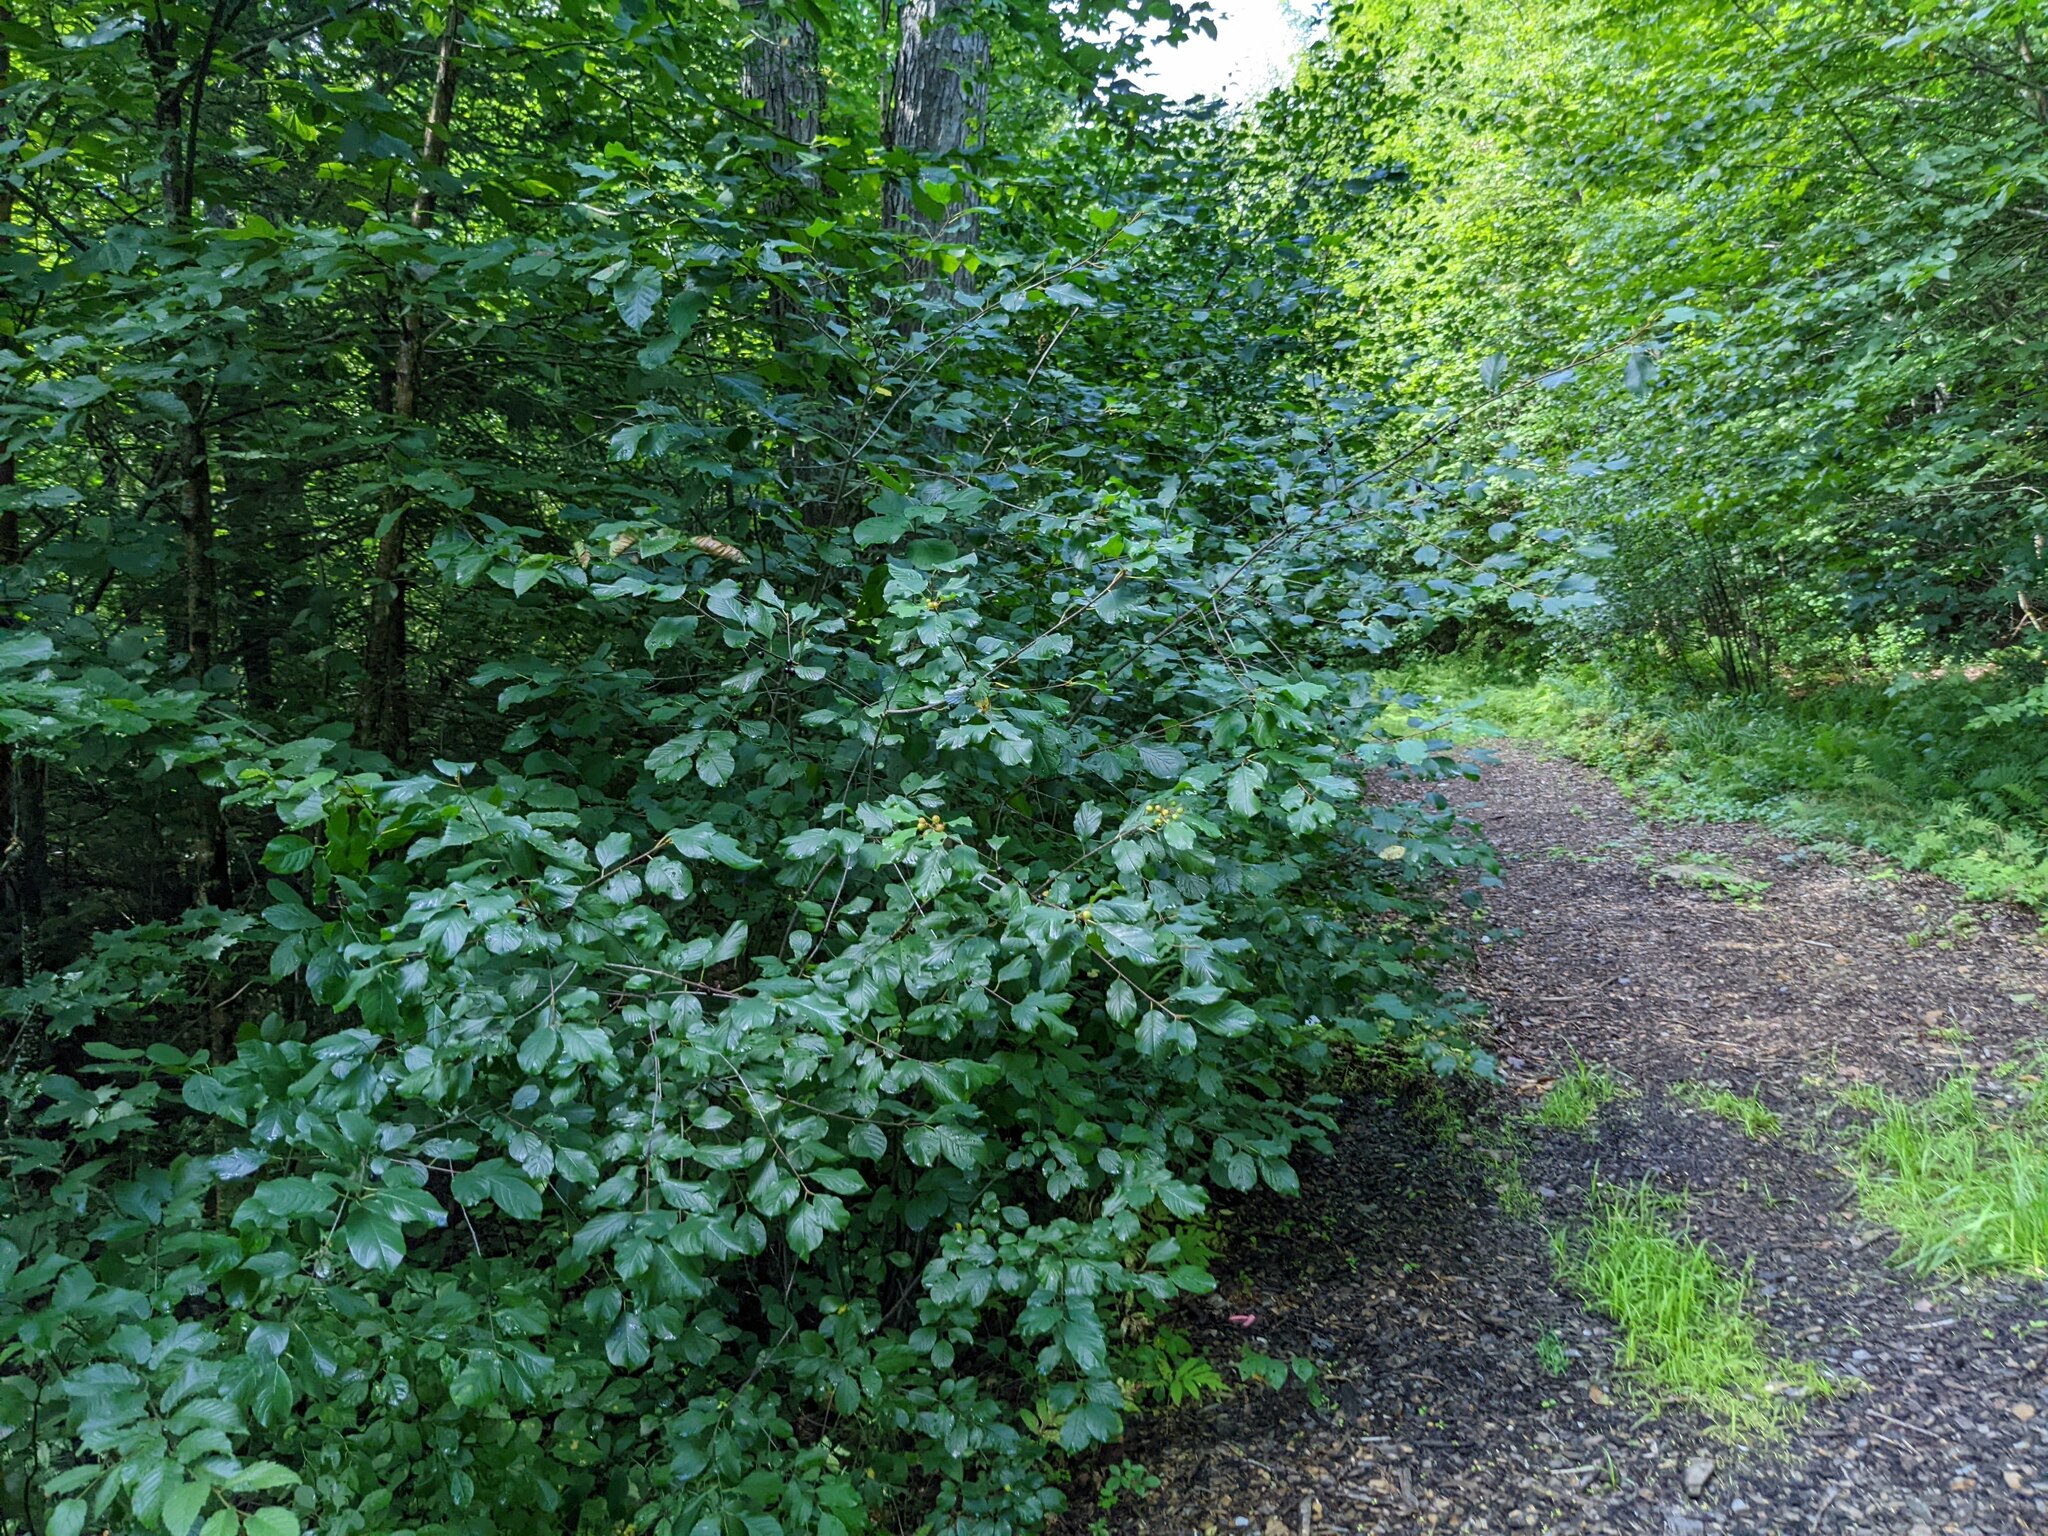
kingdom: Plantae
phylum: Tracheophyta
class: Magnoliopsida
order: Rosales
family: Rhamnaceae
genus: Frangula
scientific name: Frangula alnus
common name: Alder buckthorn
